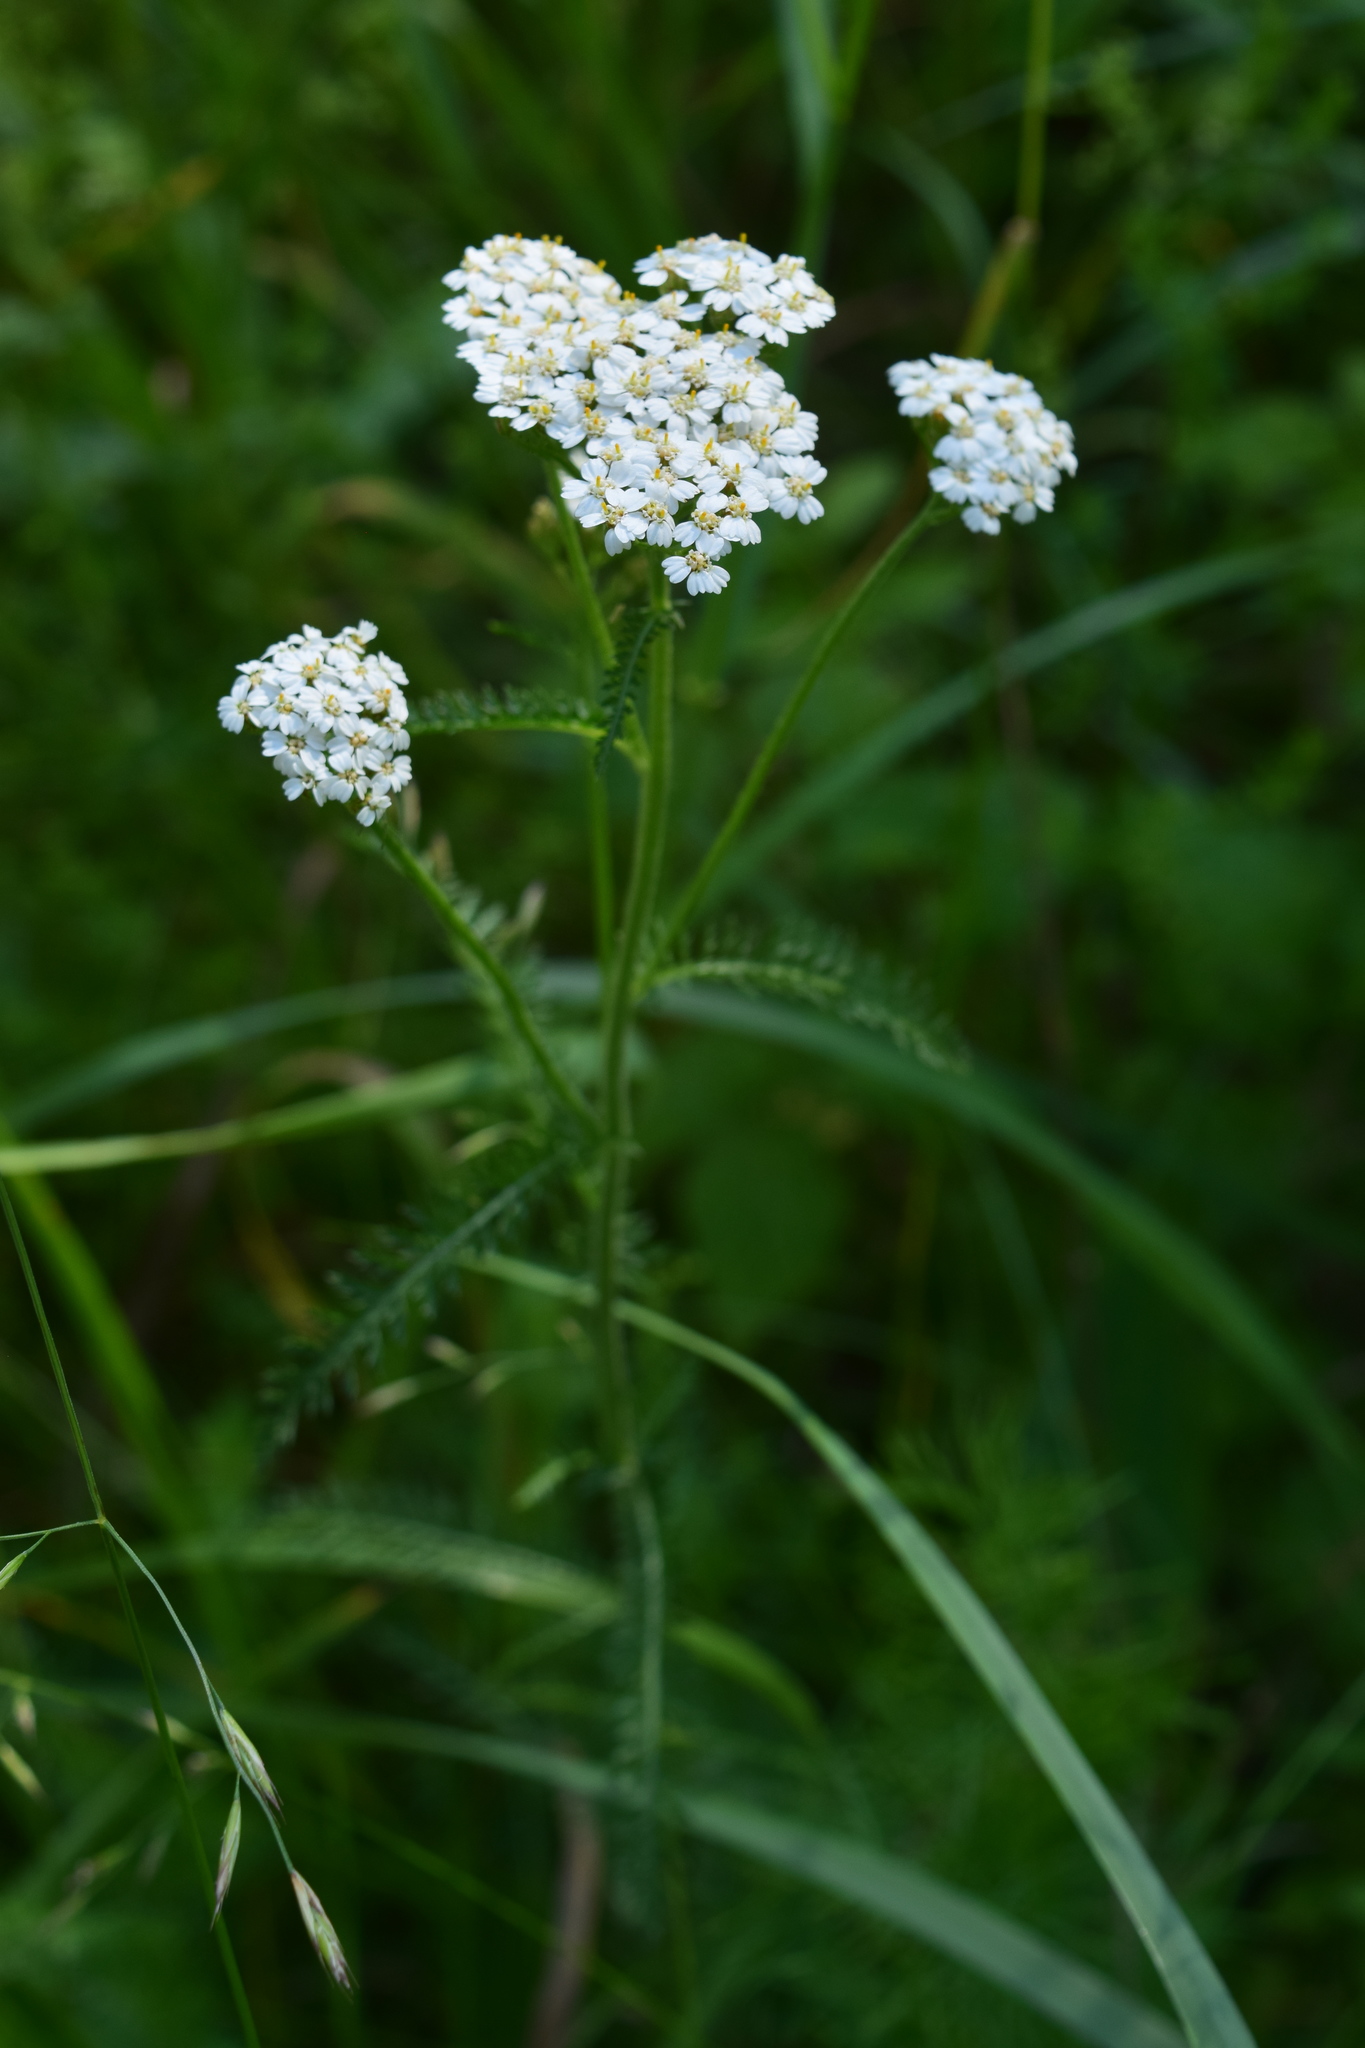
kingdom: Plantae
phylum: Tracheophyta
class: Magnoliopsida
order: Asterales
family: Asteraceae
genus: Achillea
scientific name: Achillea millefolium
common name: Yarrow
